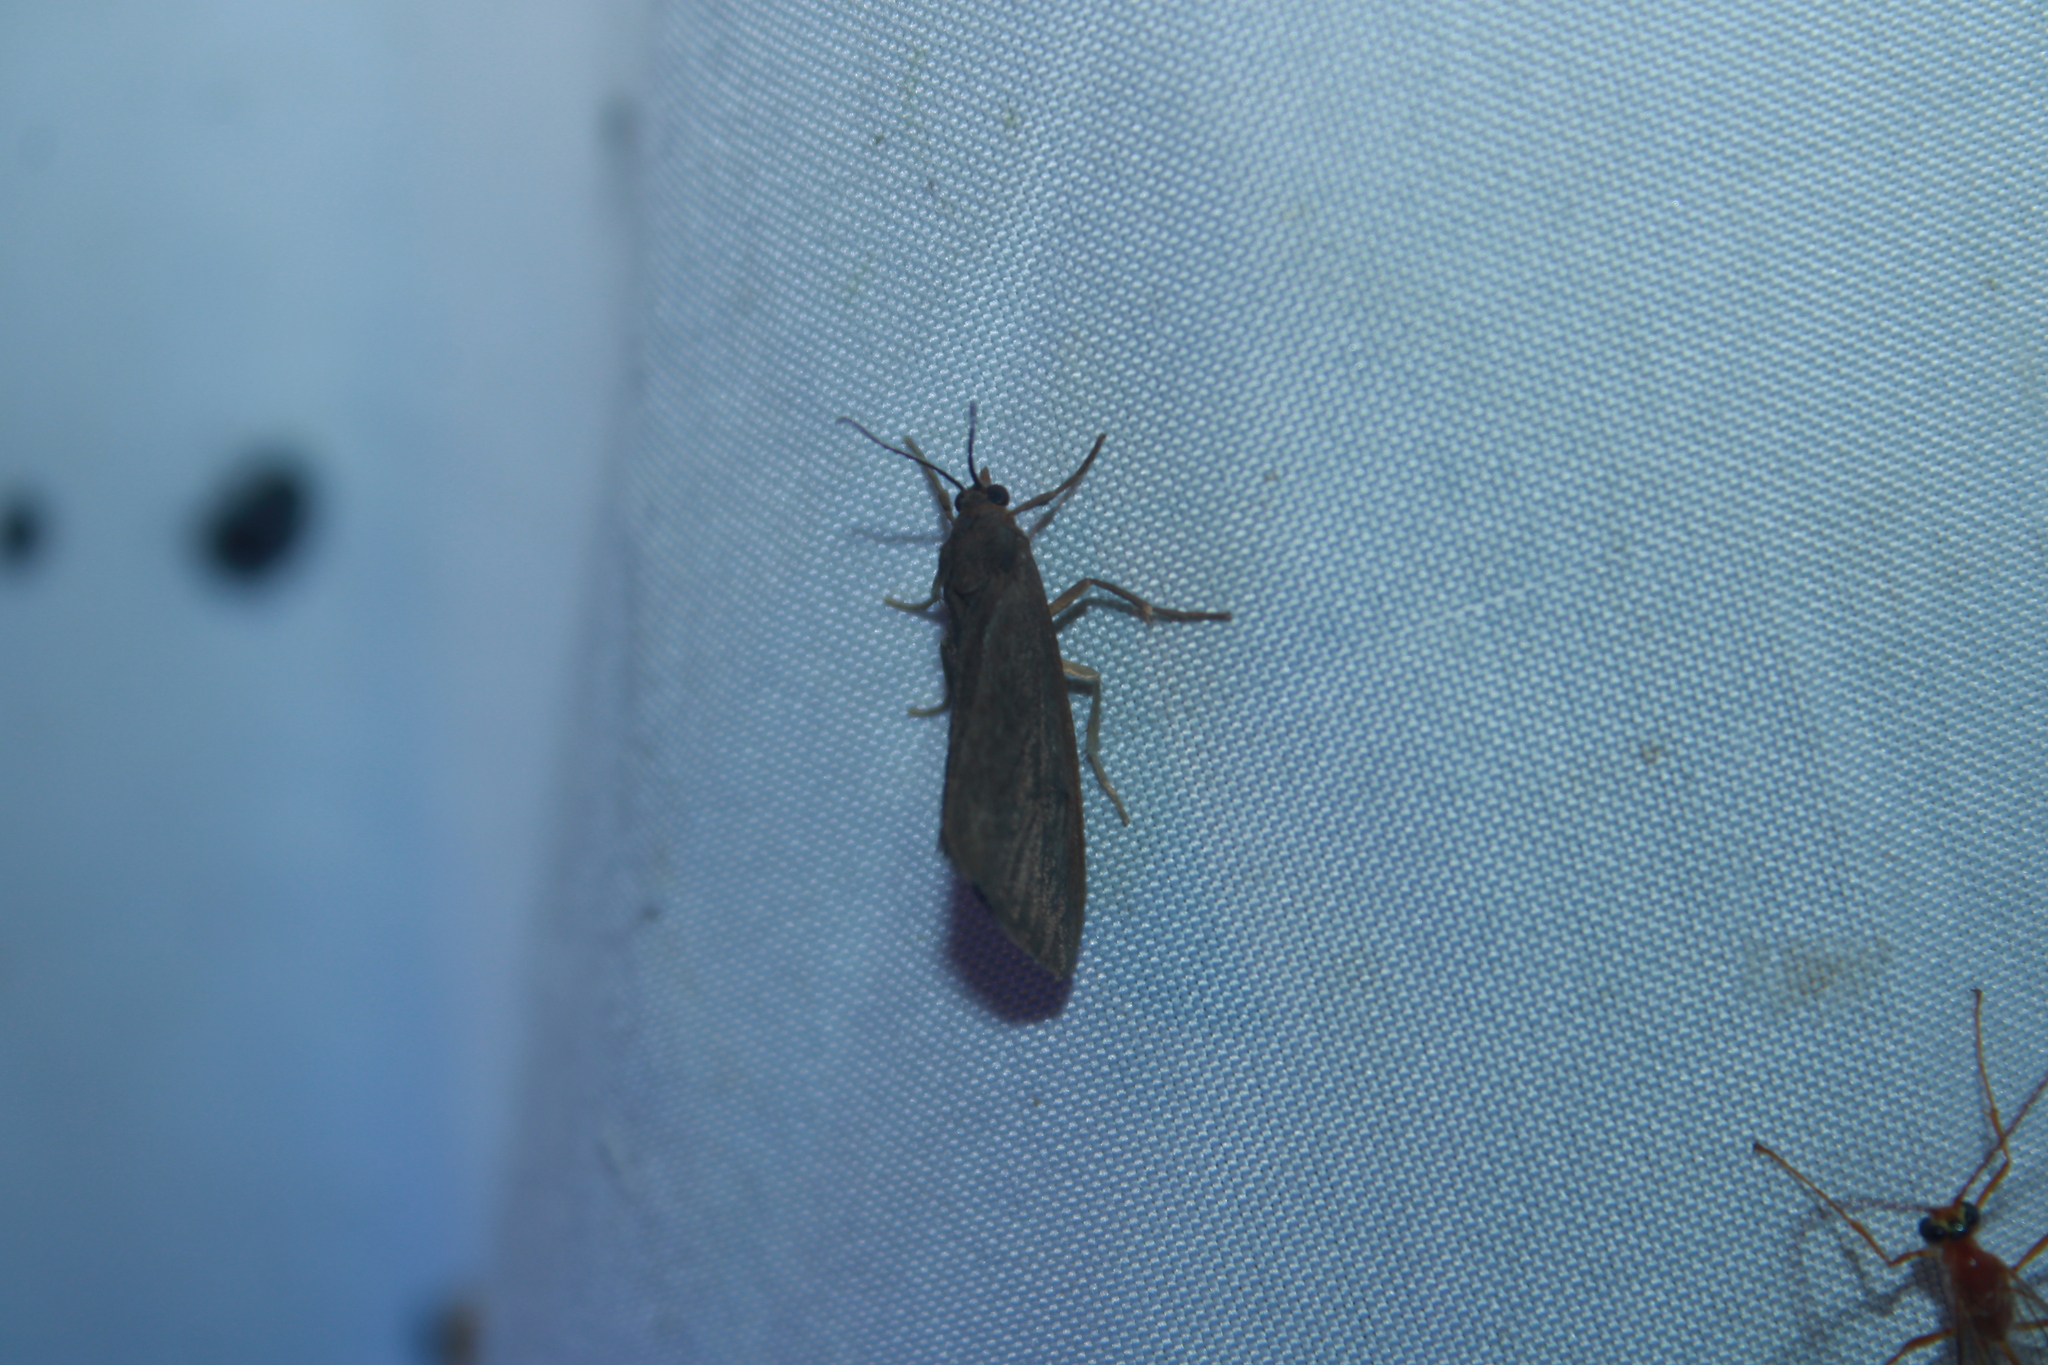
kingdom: Animalia
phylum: Arthropoda
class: Insecta
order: Lepidoptera
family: Erebidae
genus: Virbia
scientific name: Virbia laeta
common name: Joyful holomelina moth
